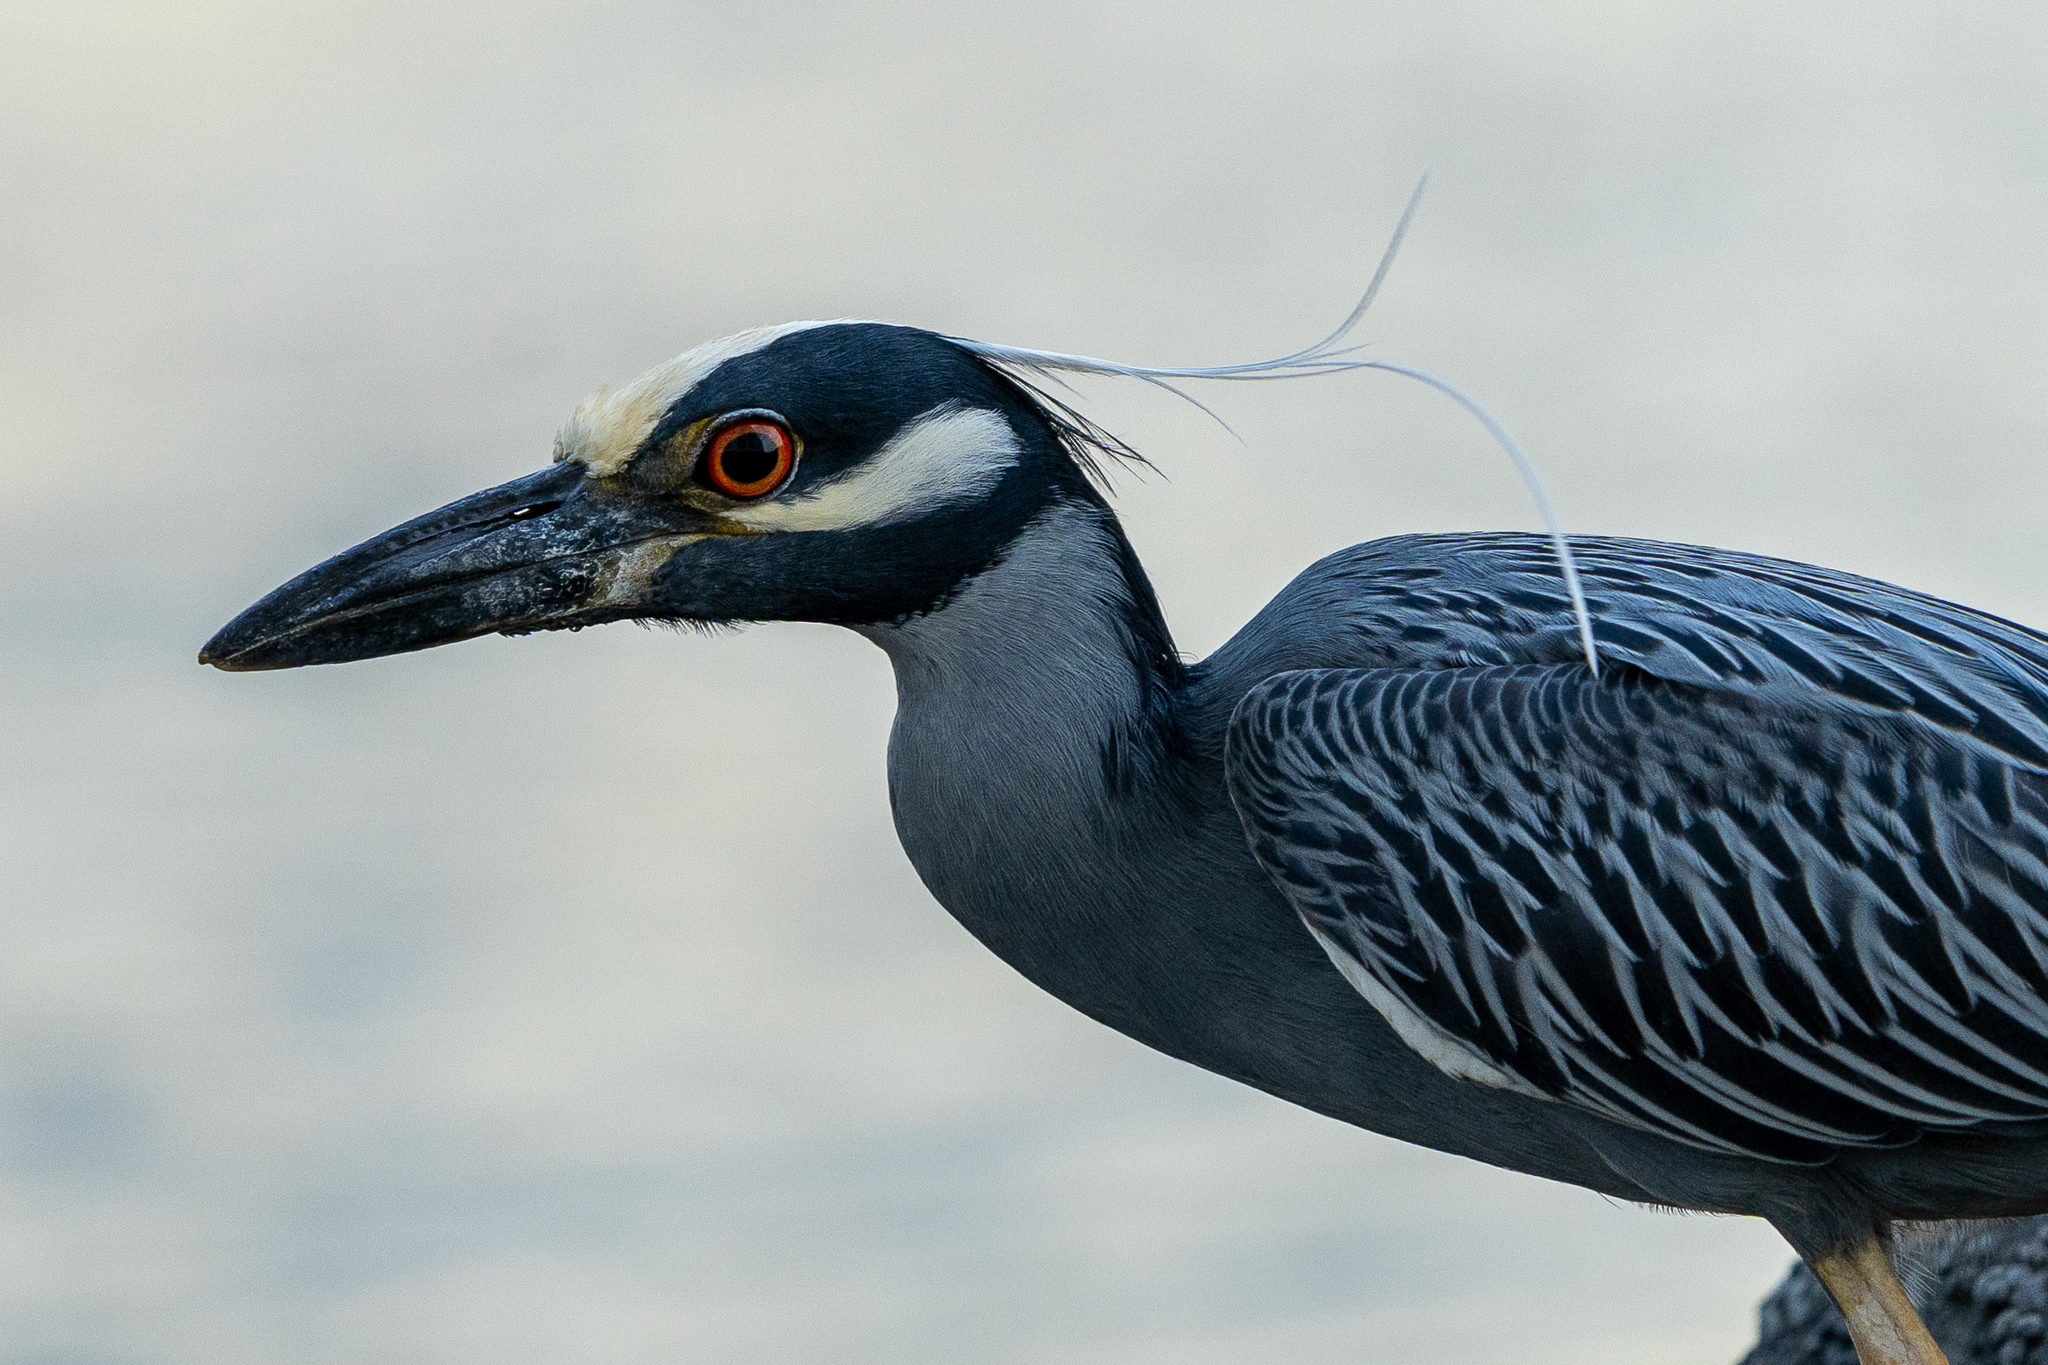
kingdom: Animalia
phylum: Chordata
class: Aves
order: Pelecaniformes
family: Ardeidae
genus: Nyctanassa
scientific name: Nyctanassa violacea
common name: Yellow-crowned night heron
